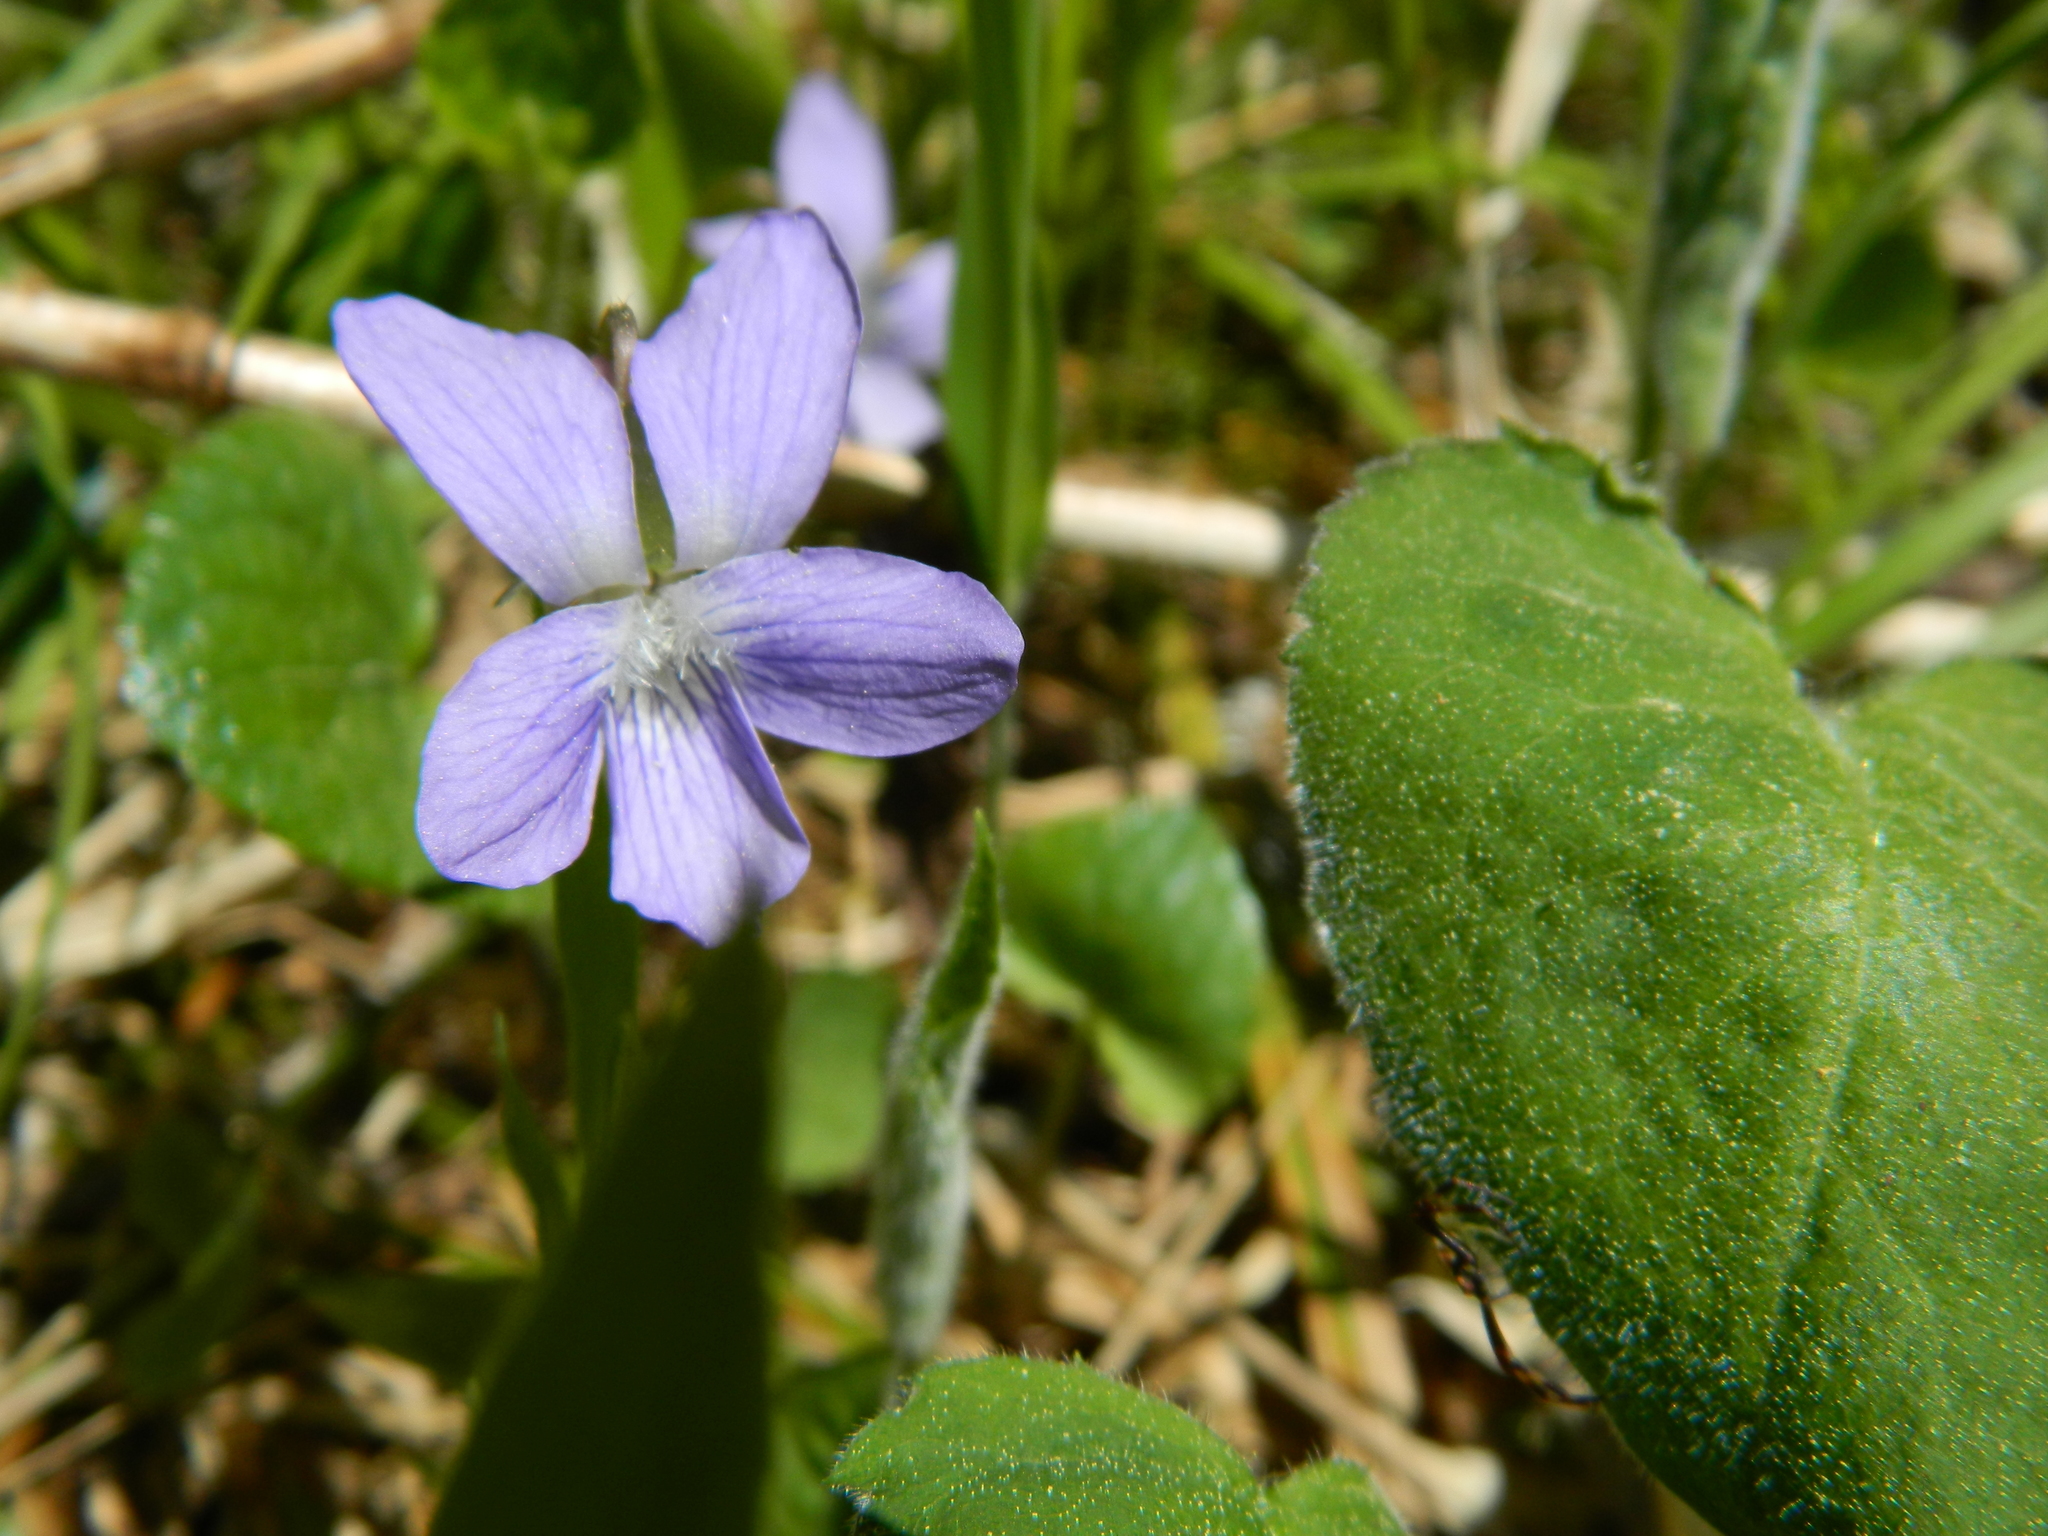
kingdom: Plantae
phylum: Tracheophyta
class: Magnoliopsida
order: Malpighiales
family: Violaceae
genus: Viola
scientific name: Viola septentrionalis
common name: Northern woodland violet
